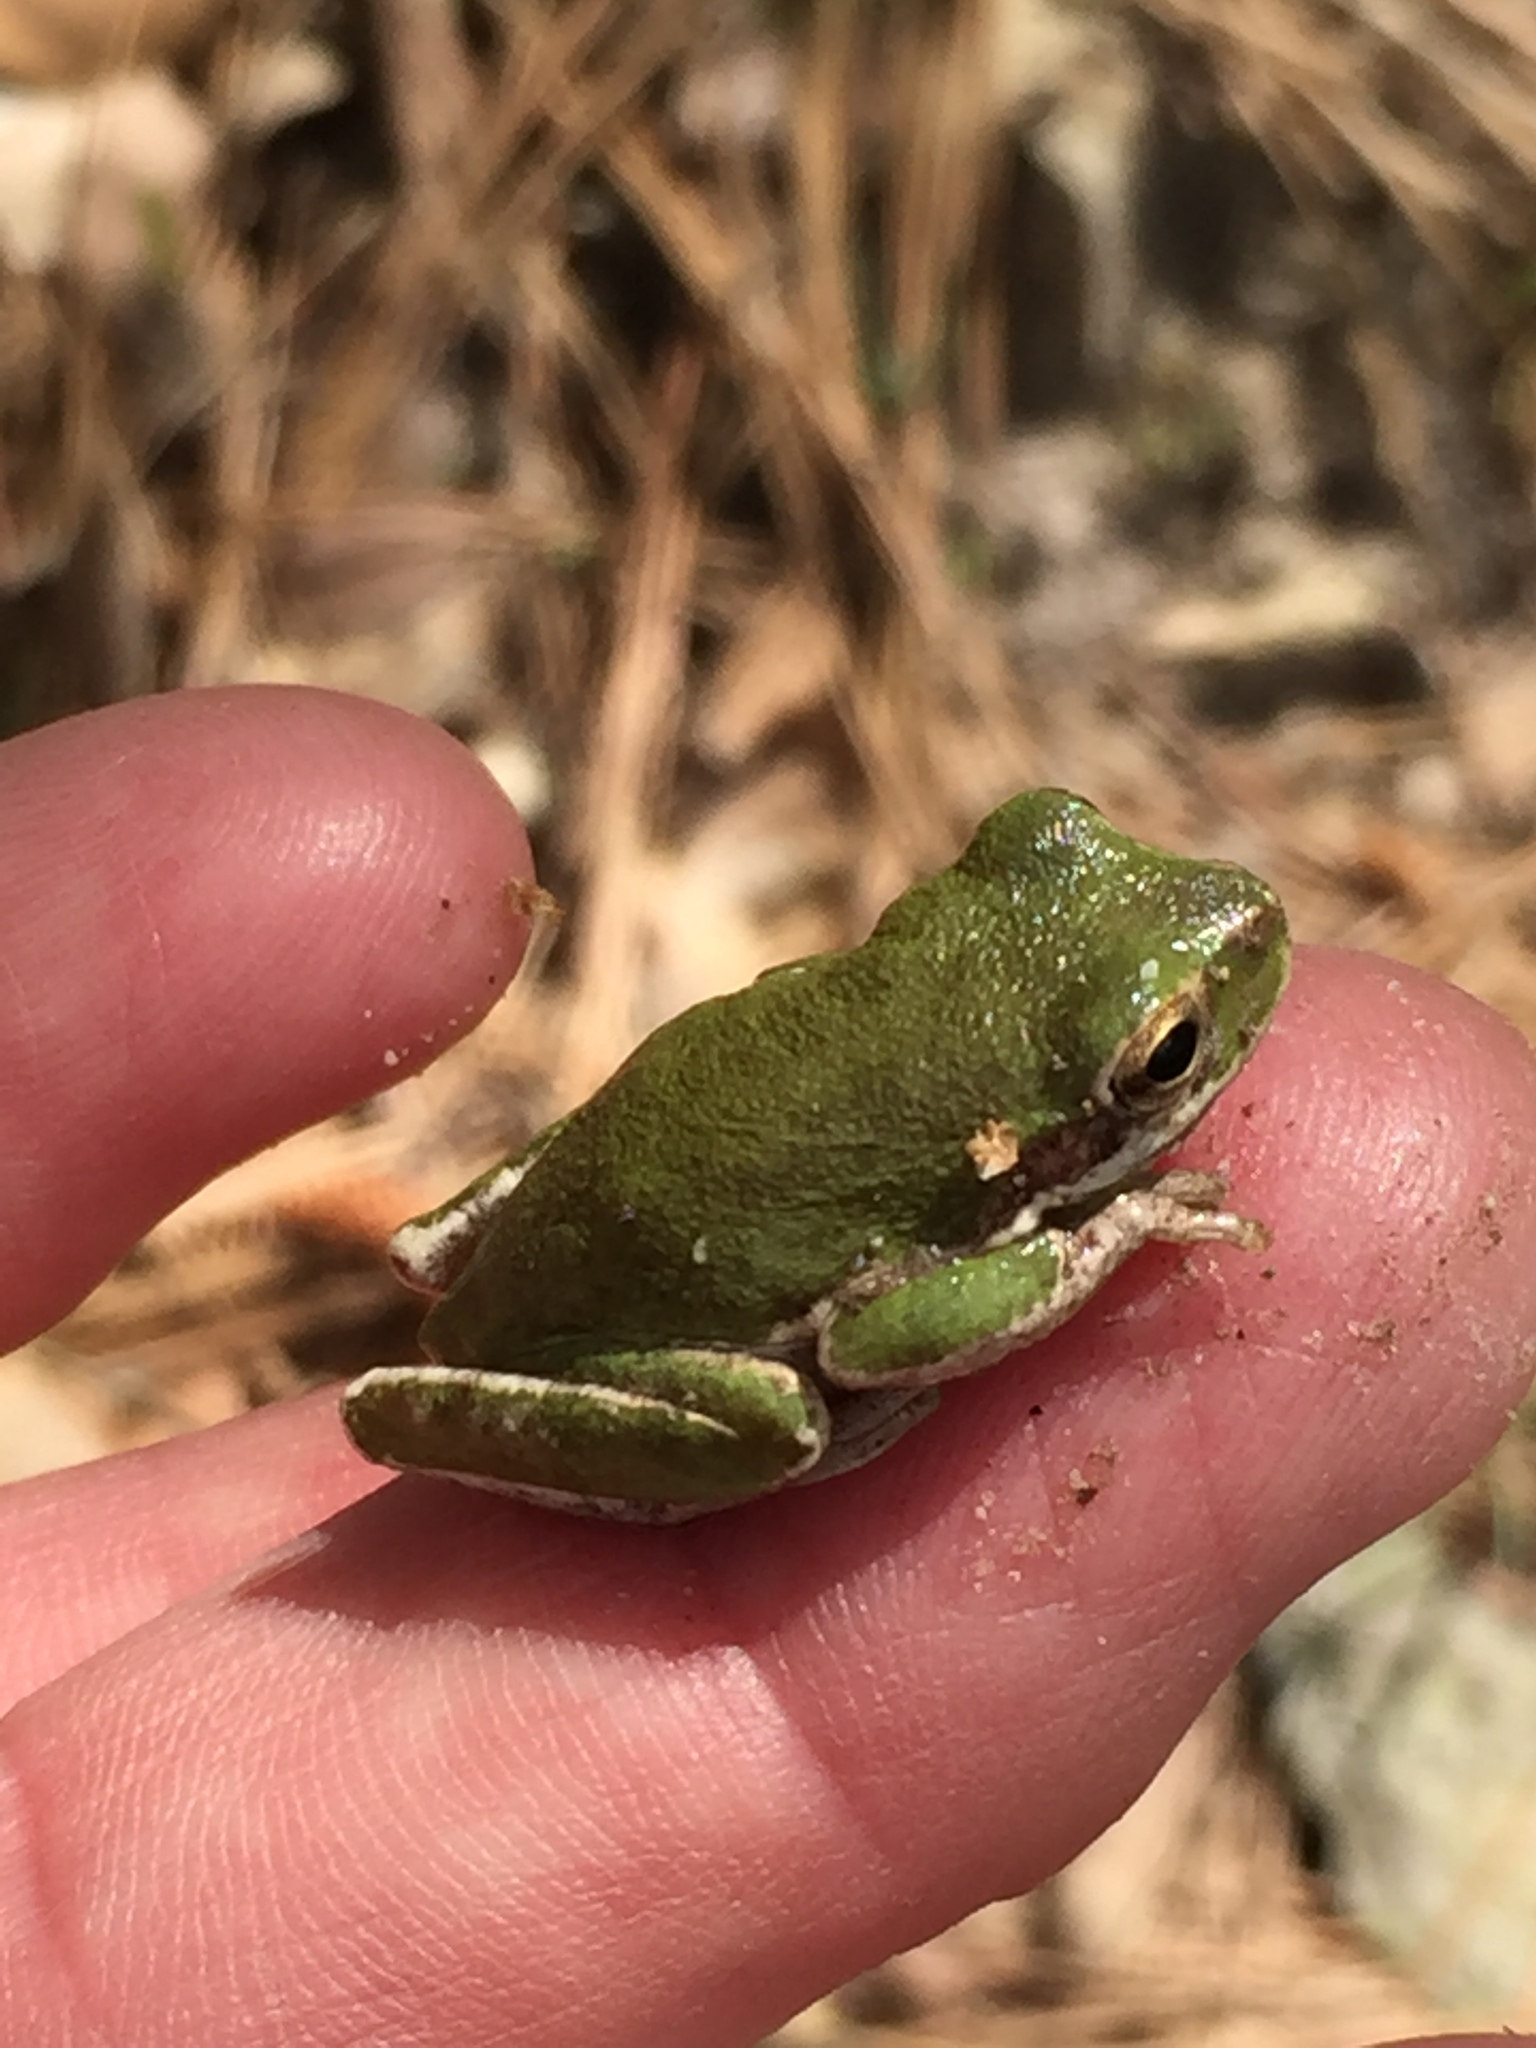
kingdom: Animalia
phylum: Chordata
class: Amphibia
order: Anura
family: Hylidae
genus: Dryophytes
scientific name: Dryophytes squirellus
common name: Squirrel treefrog
